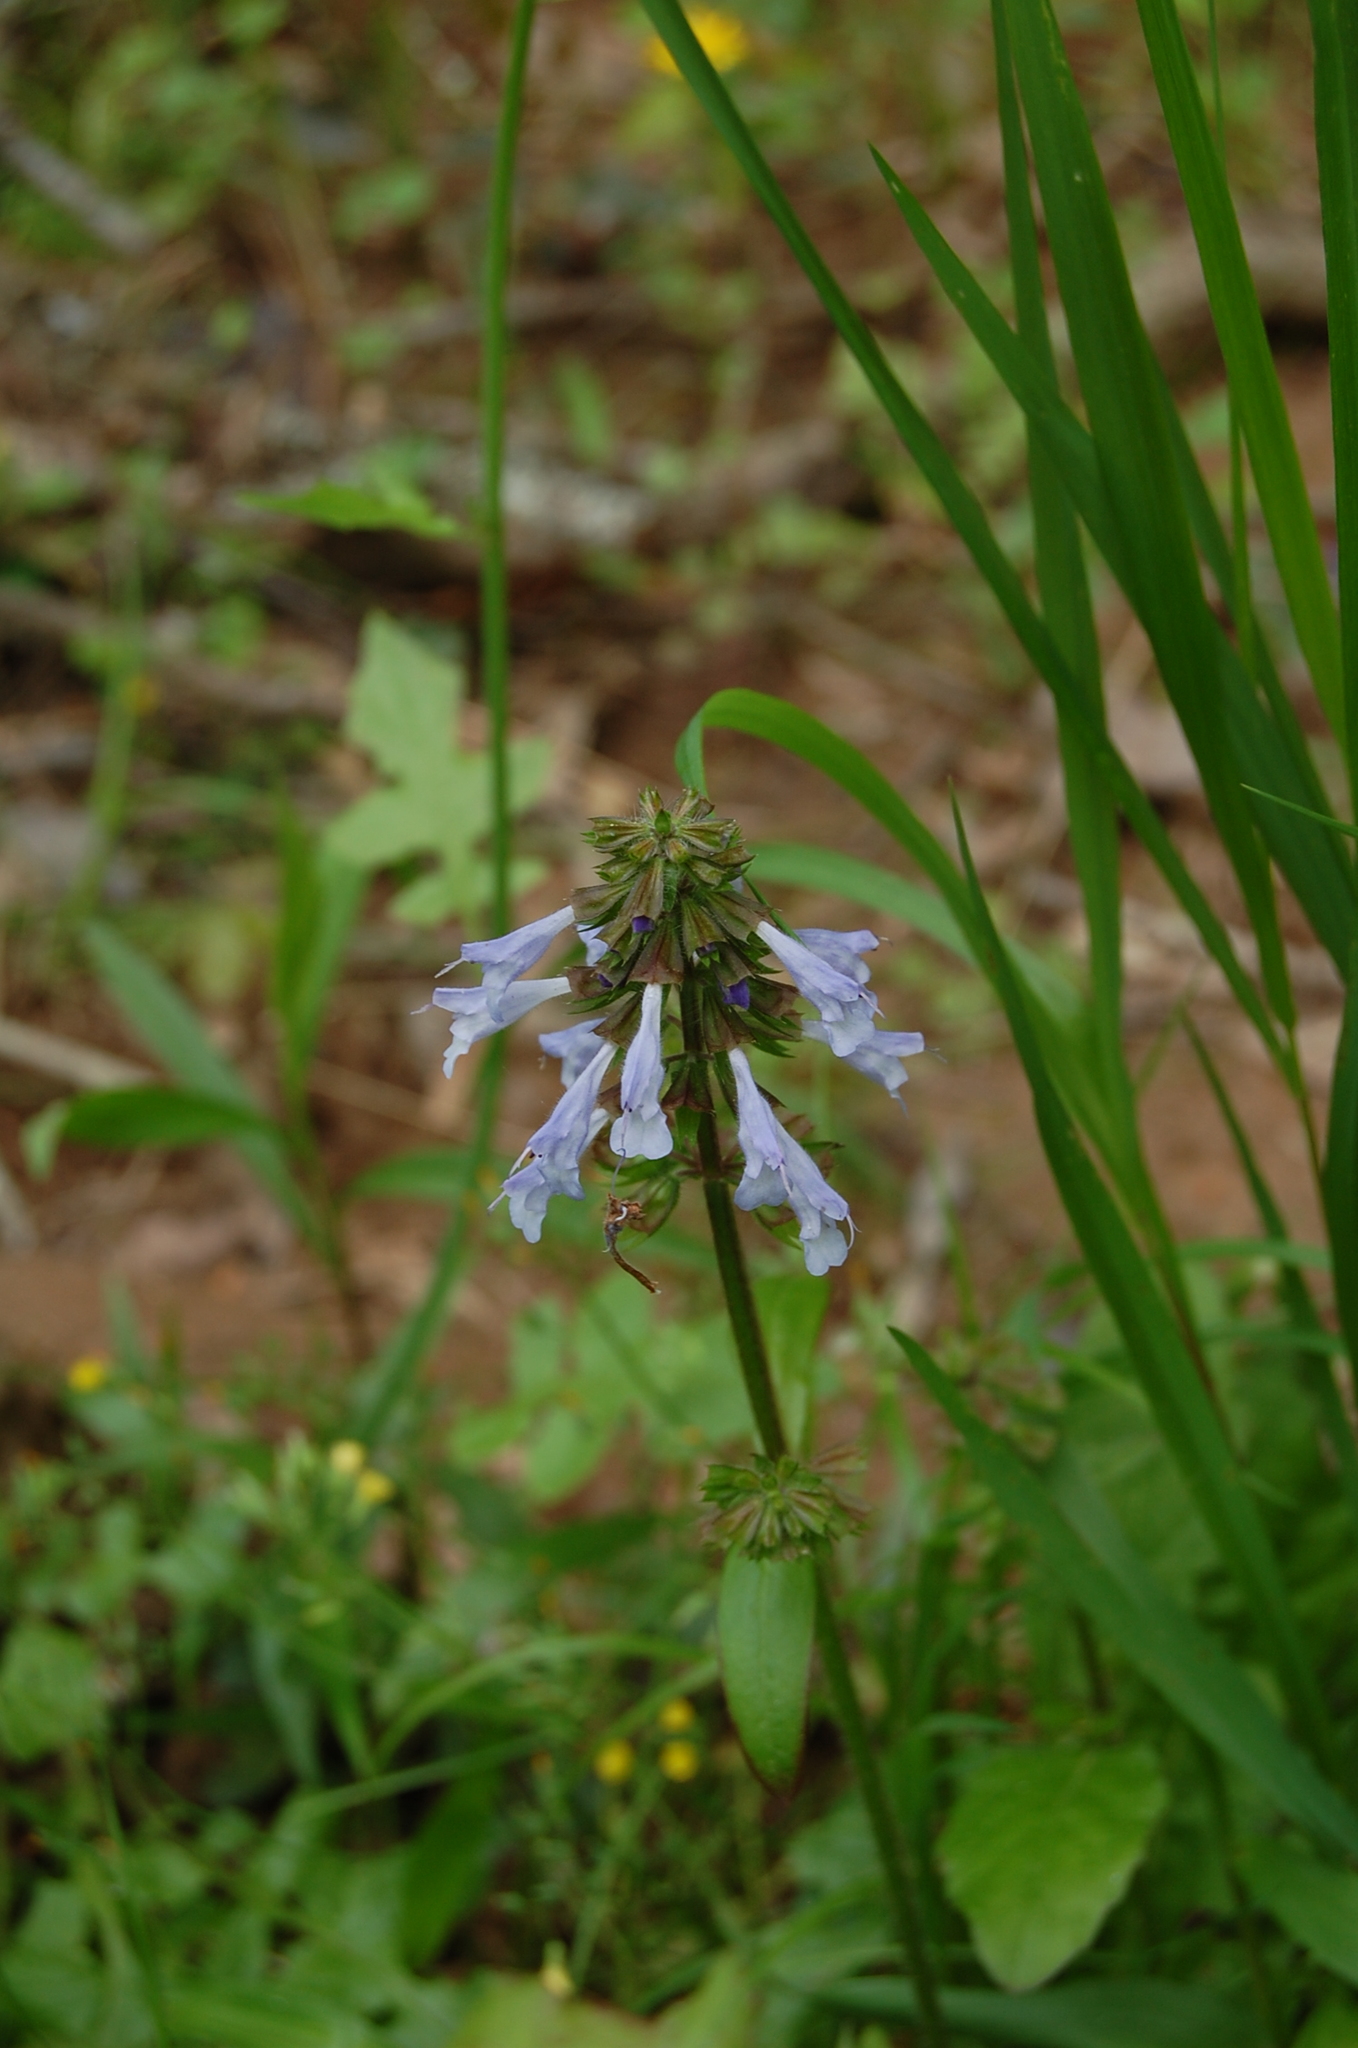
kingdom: Plantae
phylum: Tracheophyta
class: Magnoliopsida
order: Lamiales
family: Lamiaceae
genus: Salvia
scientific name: Salvia lyrata
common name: Cancerweed
